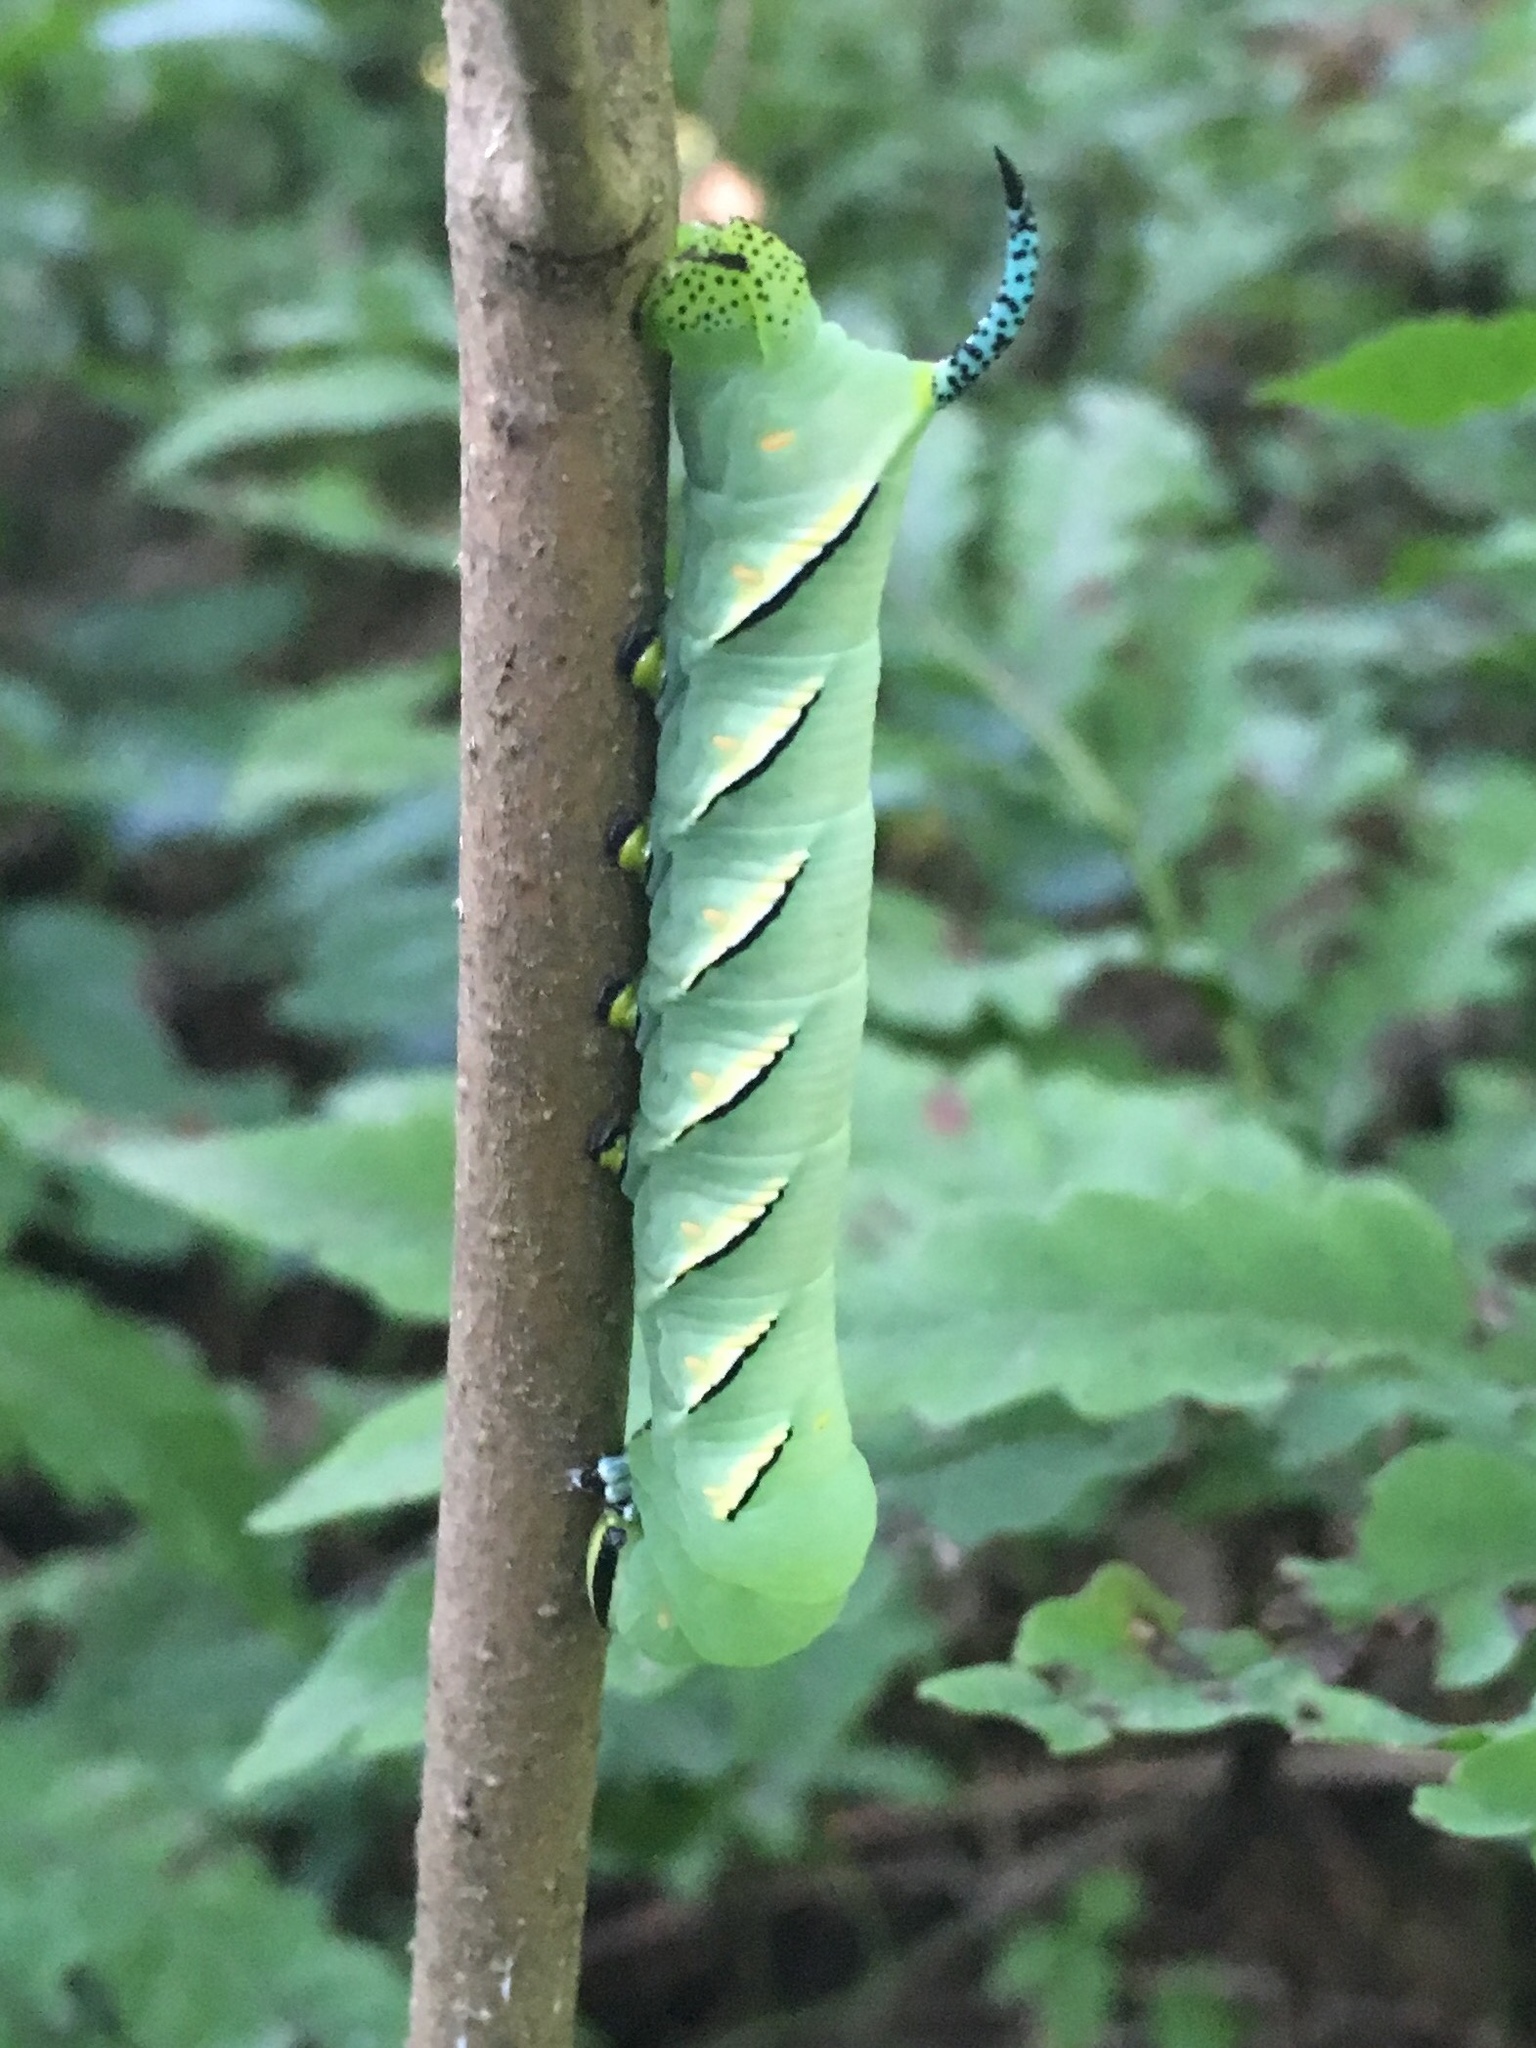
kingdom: Animalia
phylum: Arthropoda
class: Insecta
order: Lepidoptera
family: Sphingidae
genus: Sphinx
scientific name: Sphinx kalmiae
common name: Laurel sphinx
